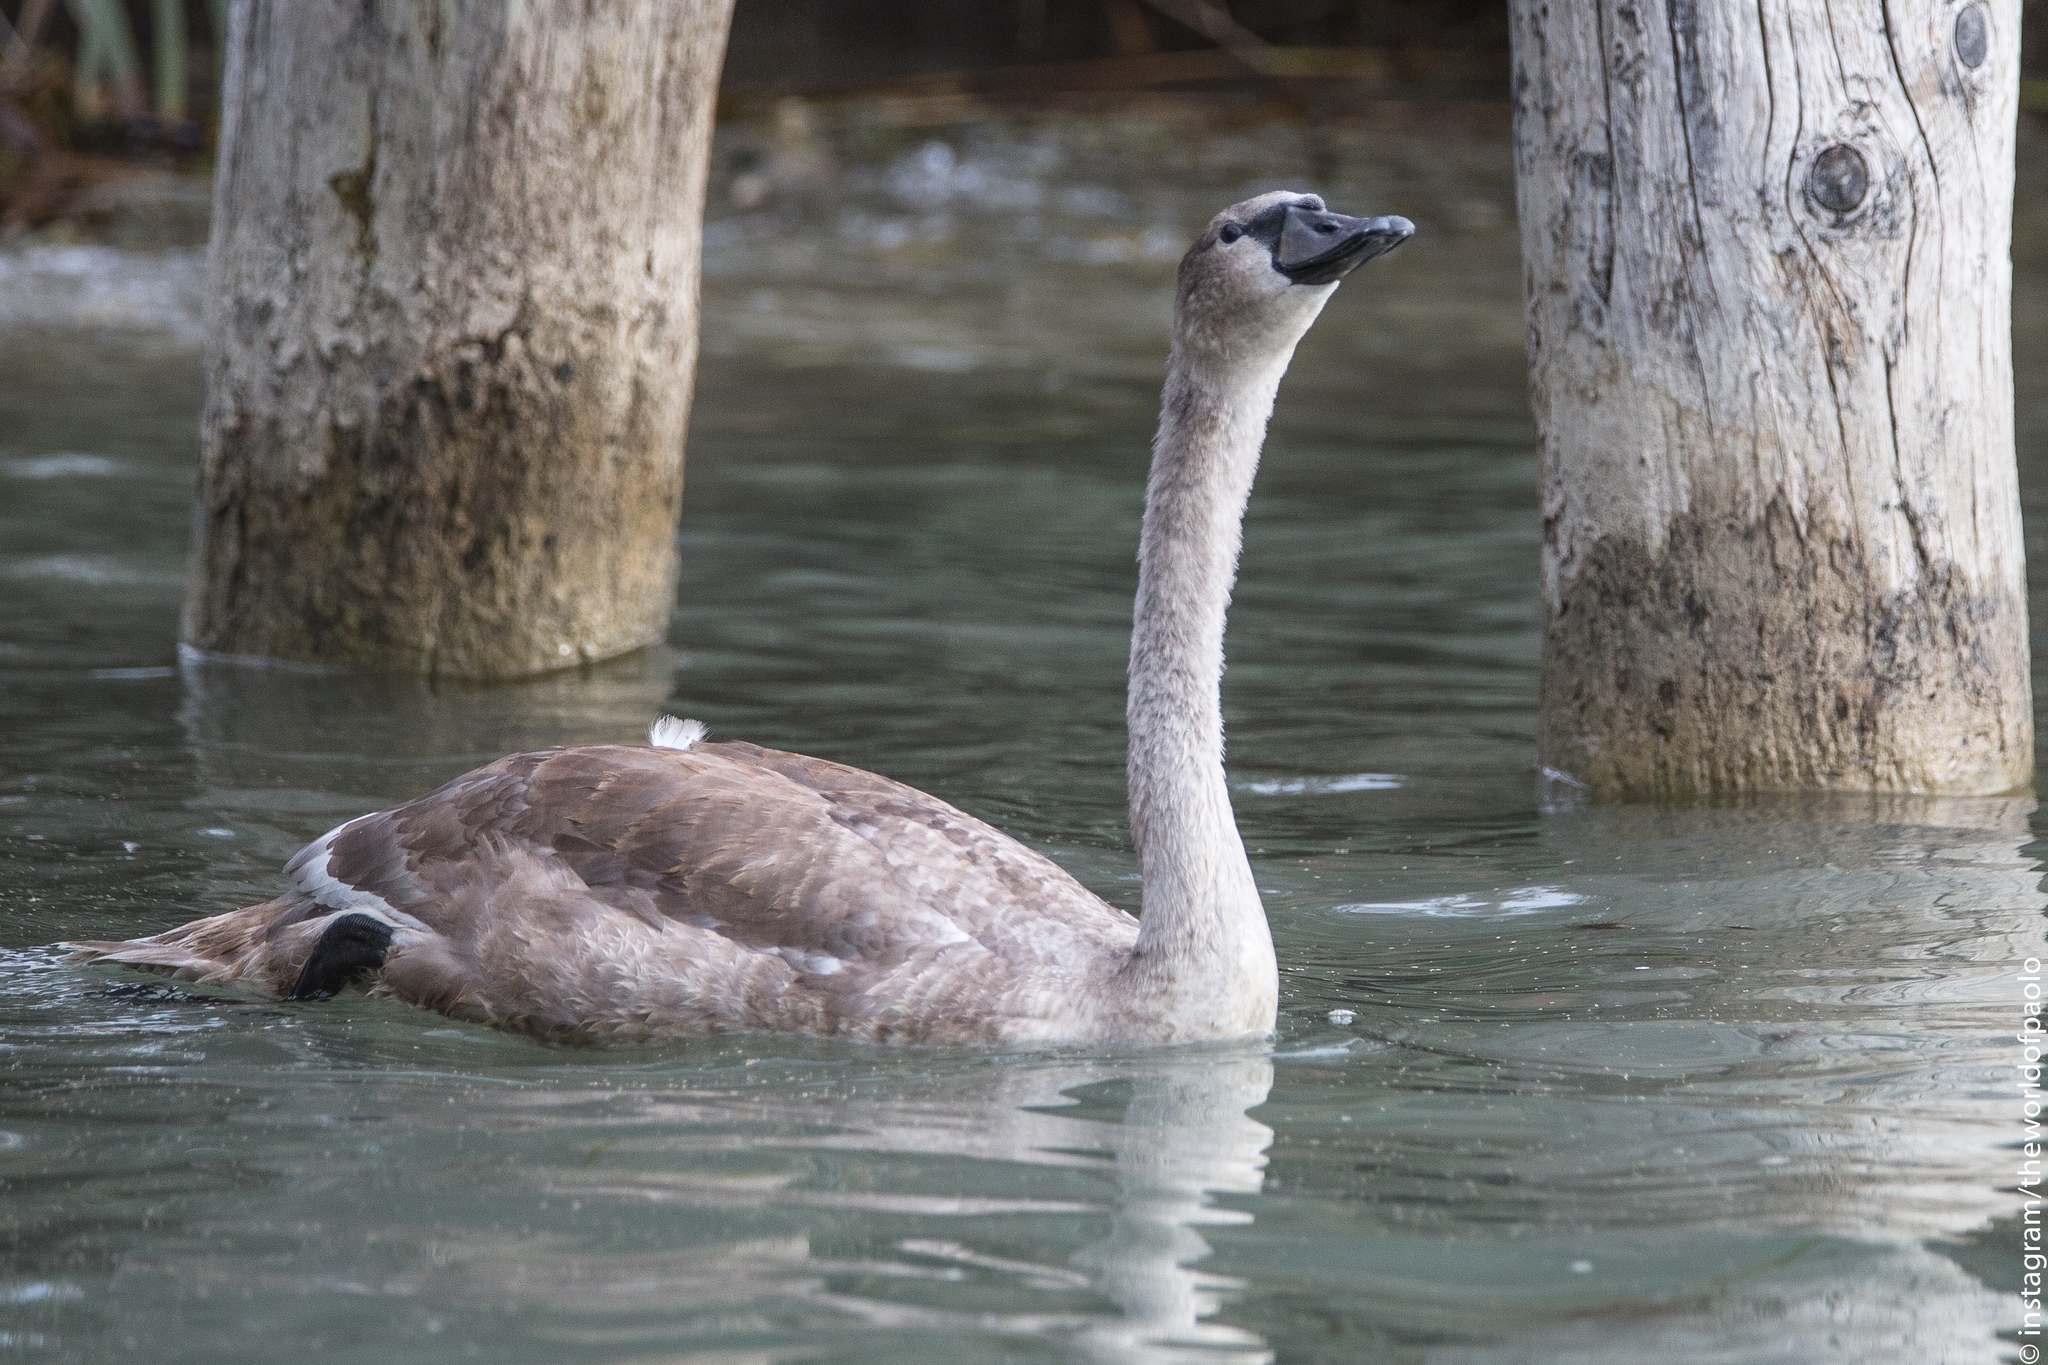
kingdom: Animalia
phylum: Chordata
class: Aves
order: Anseriformes
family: Anatidae
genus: Cygnus
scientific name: Cygnus olor
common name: Mute swan
